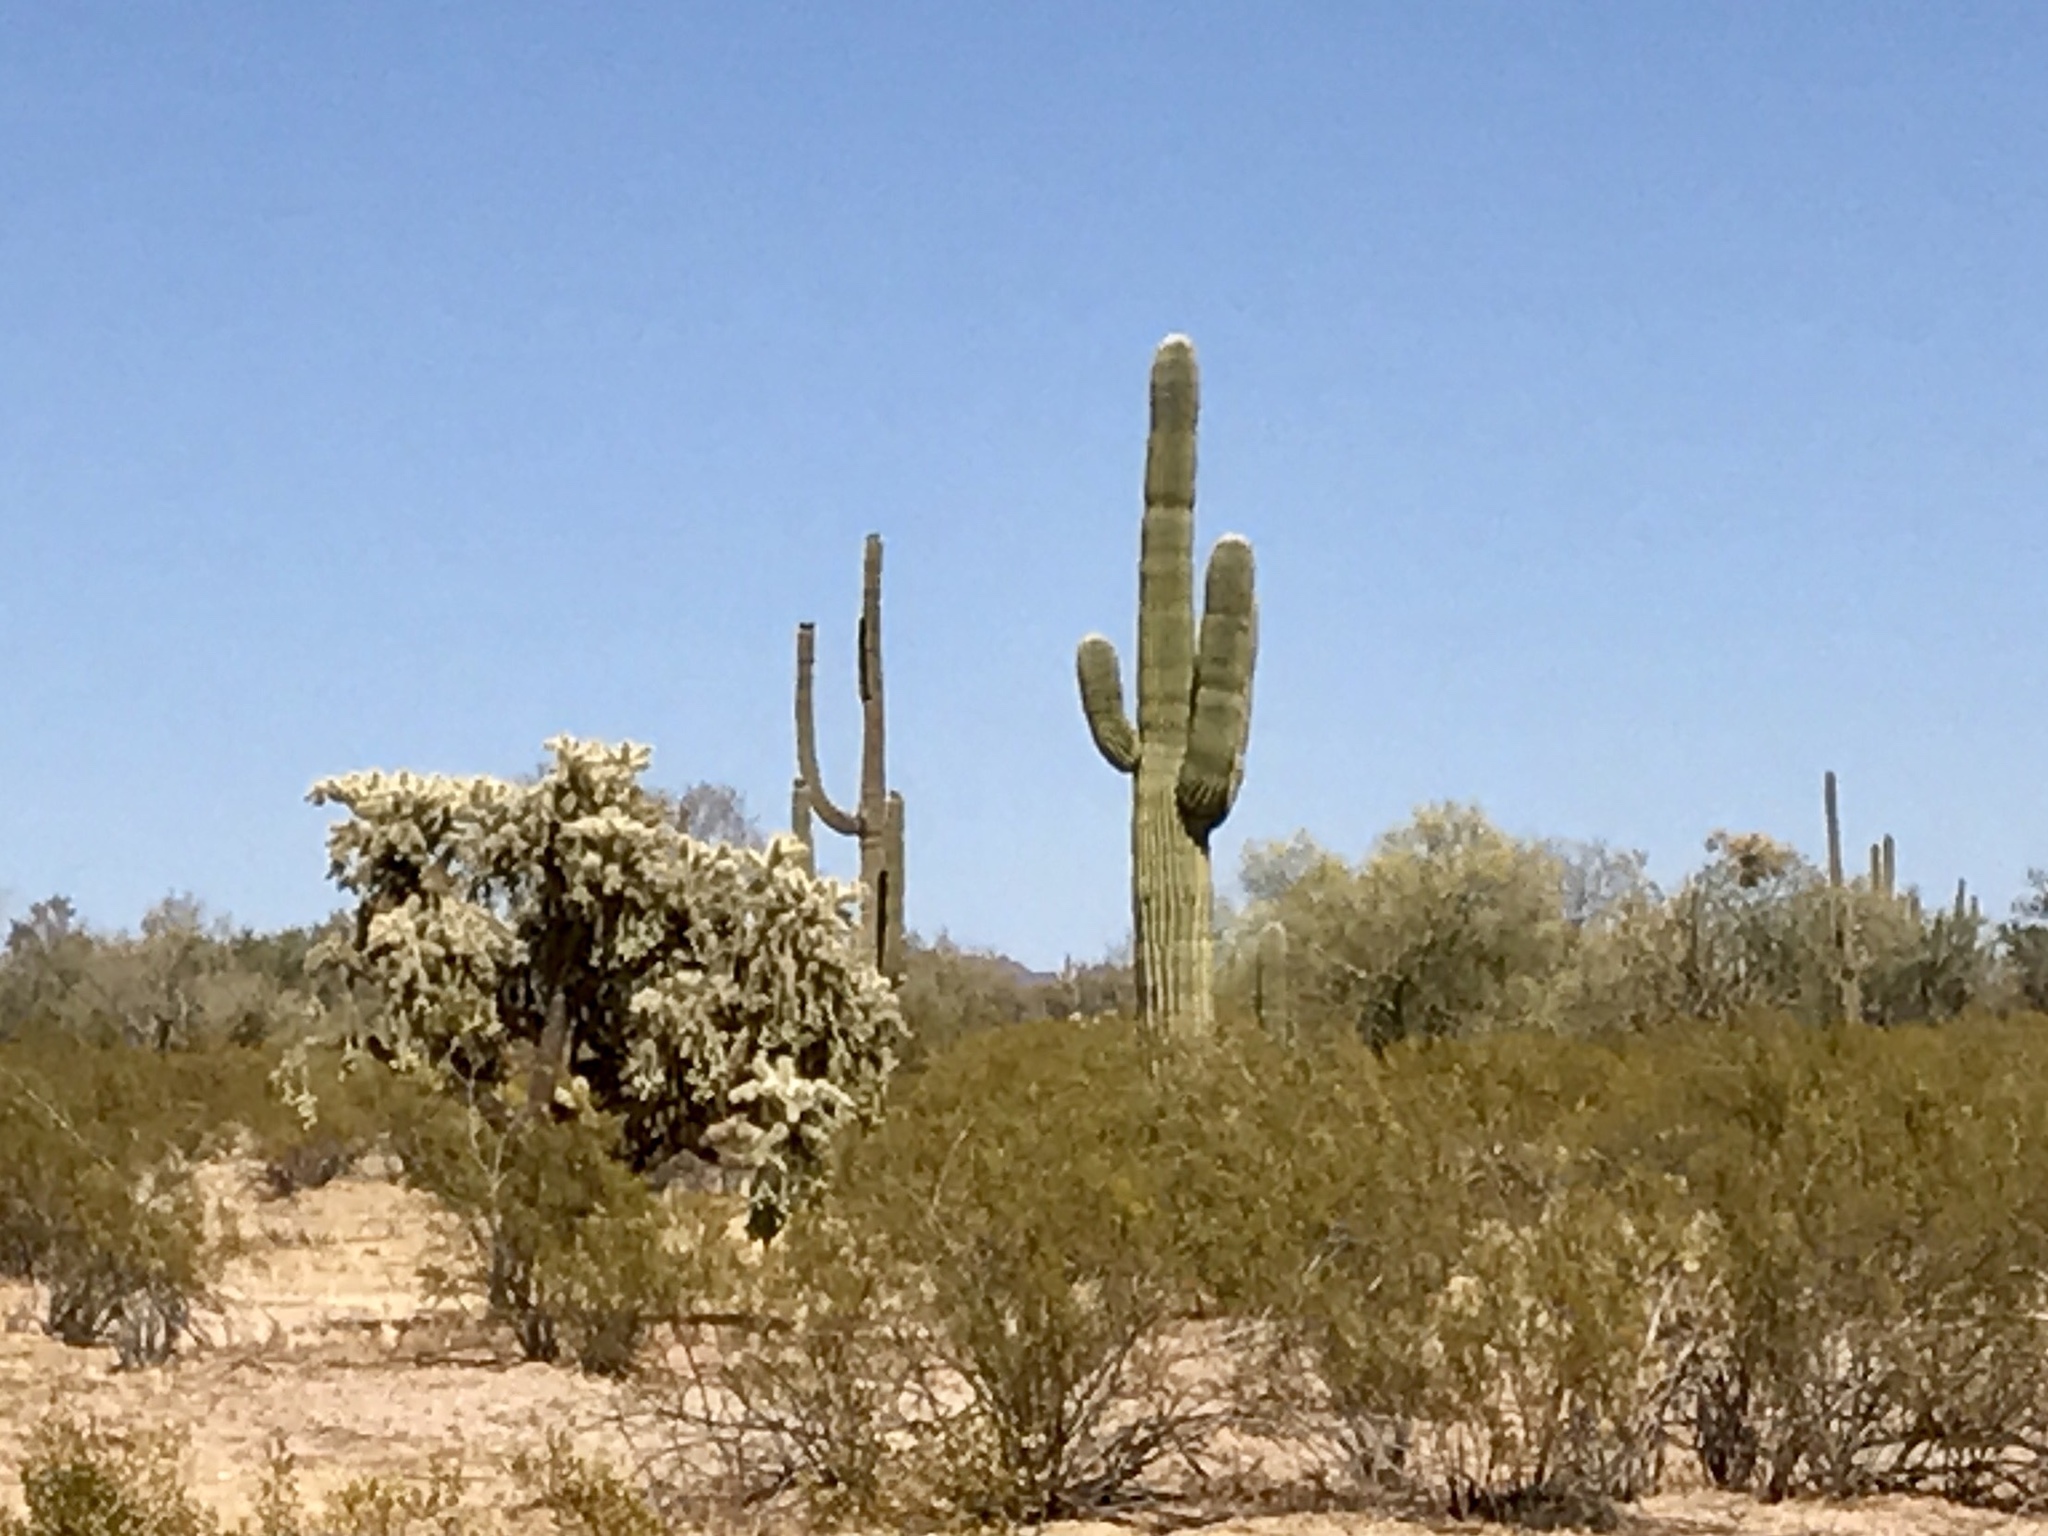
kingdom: Plantae
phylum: Tracheophyta
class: Magnoliopsida
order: Caryophyllales
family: Cactaceae
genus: Carnegiea
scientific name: Carnegiea gigantea
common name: Saguaro
